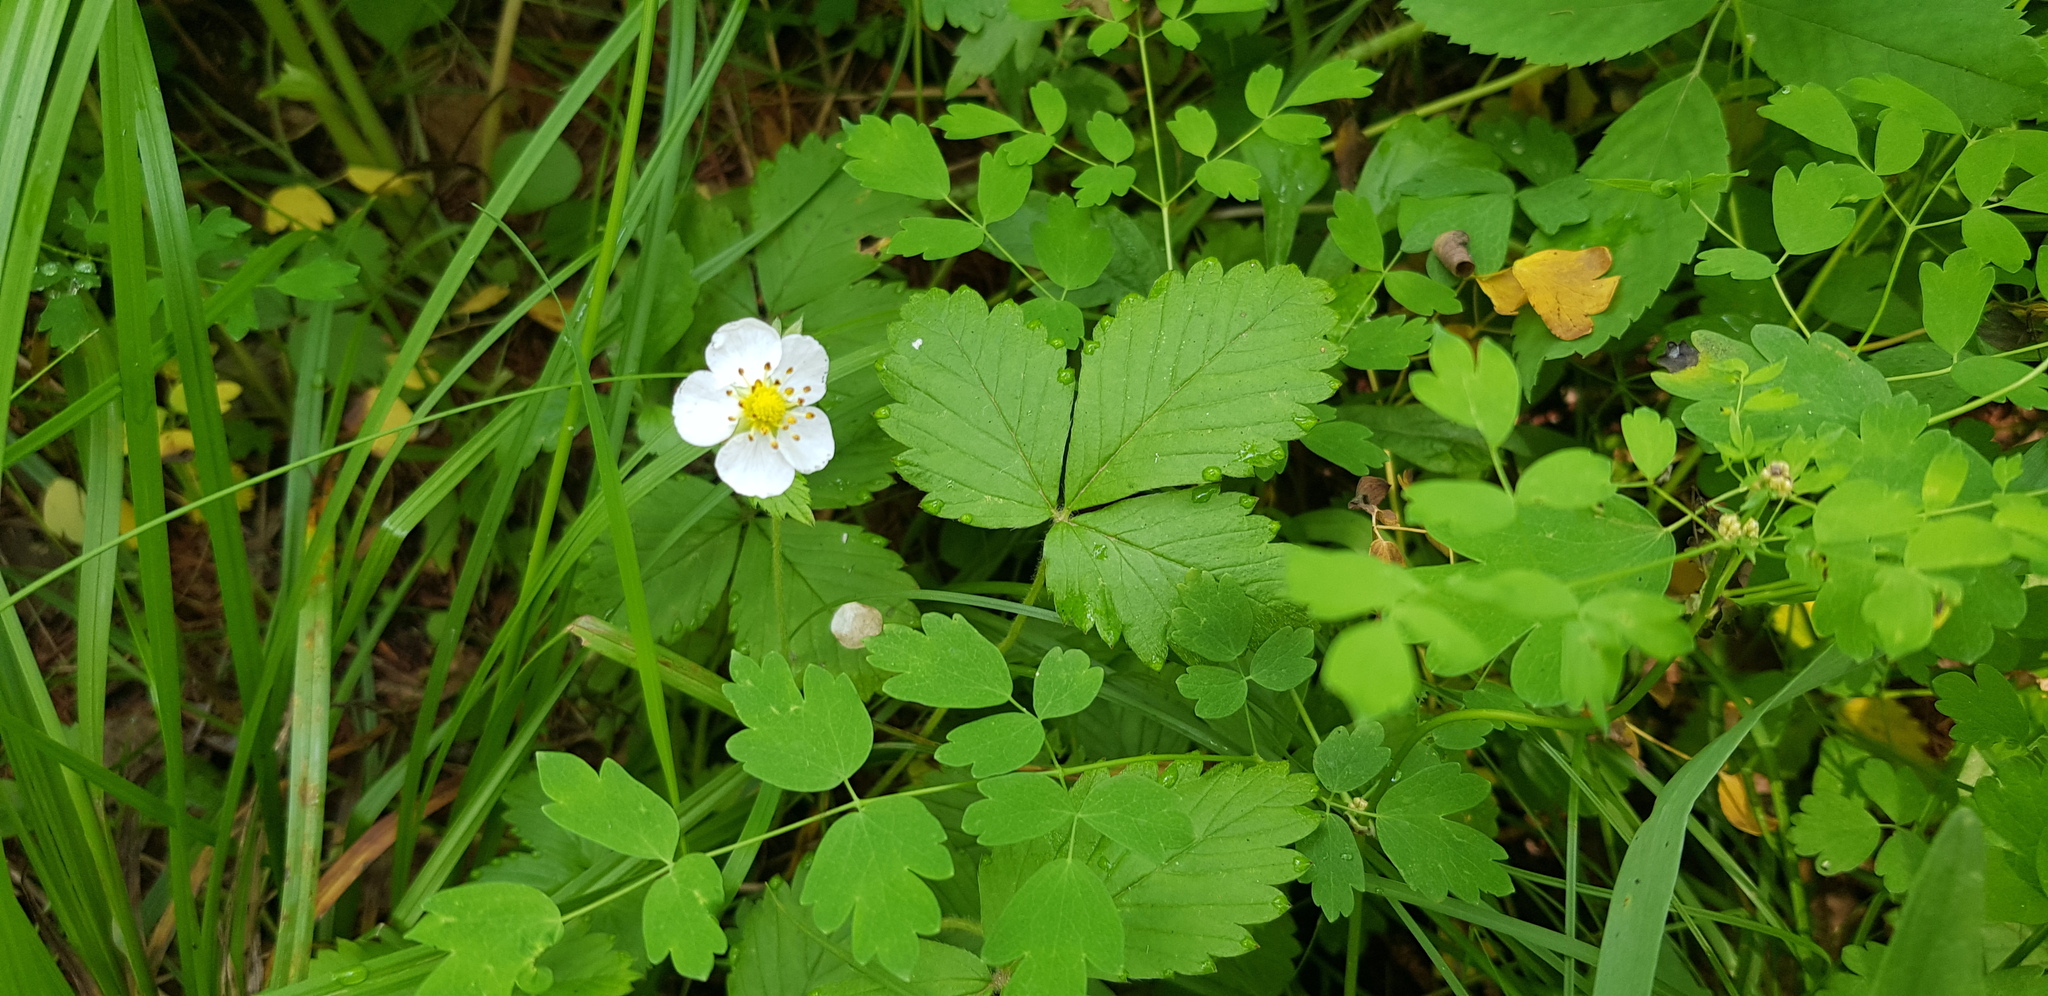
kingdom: Plantae
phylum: Tracheophyta
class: Magnoliopsida
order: Rosales
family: Rosaceae
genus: Fragaria
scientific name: Fragaria orientalis
